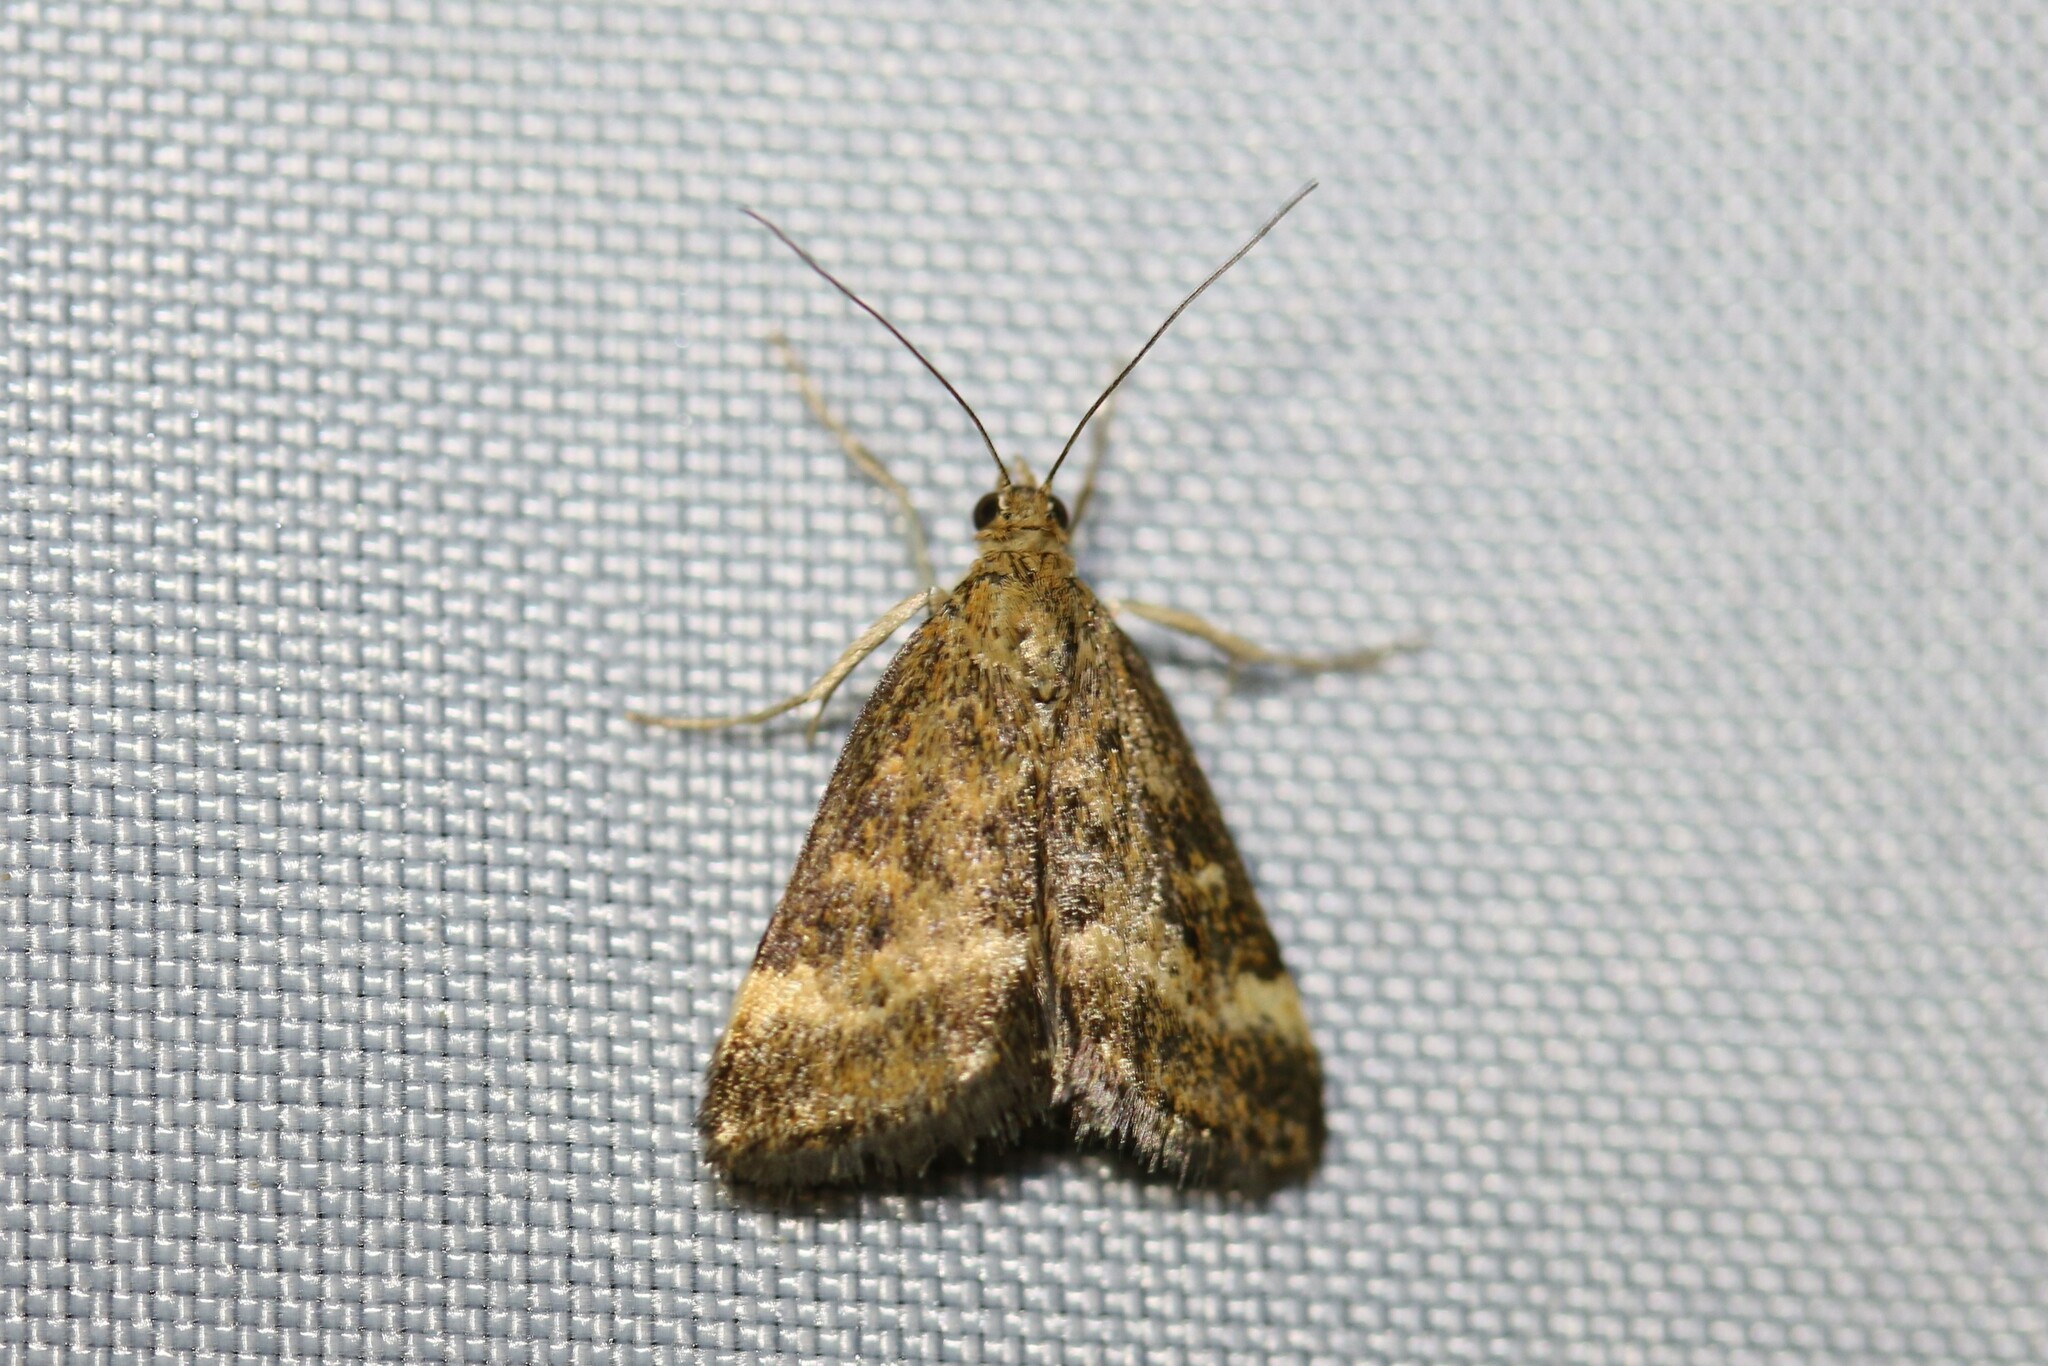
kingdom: Animalia
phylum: Arthropoda
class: Insecta
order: Lepidoptera
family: Crambidae
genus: Pyrausta
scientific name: Pyrausta despicata
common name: Straw-barred pearl
